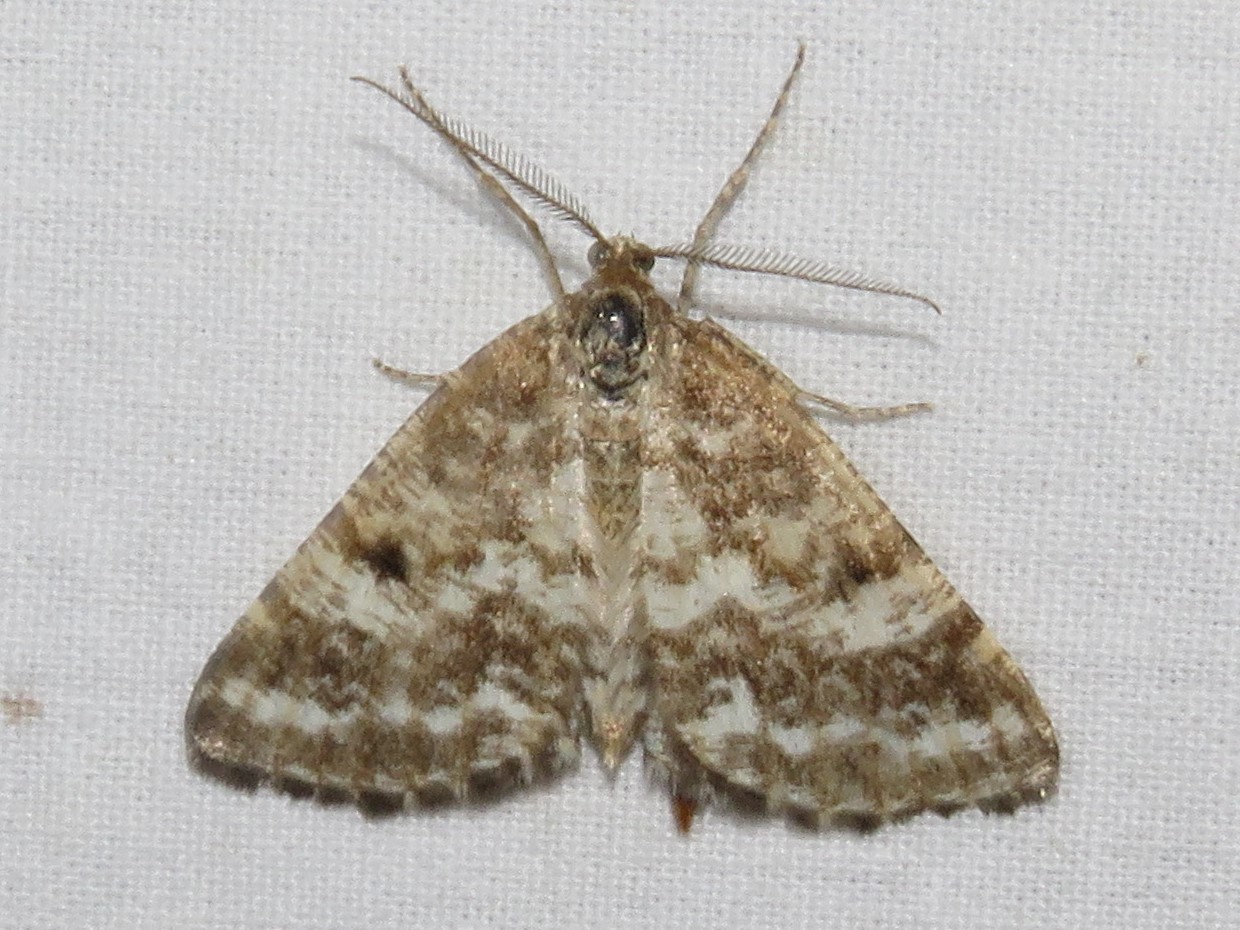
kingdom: Animalia
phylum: Arthropoda
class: Insecta
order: Lepidoptera
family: Geometridae
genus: Eufidonia
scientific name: Eufidonia notataria
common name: Powder moth
